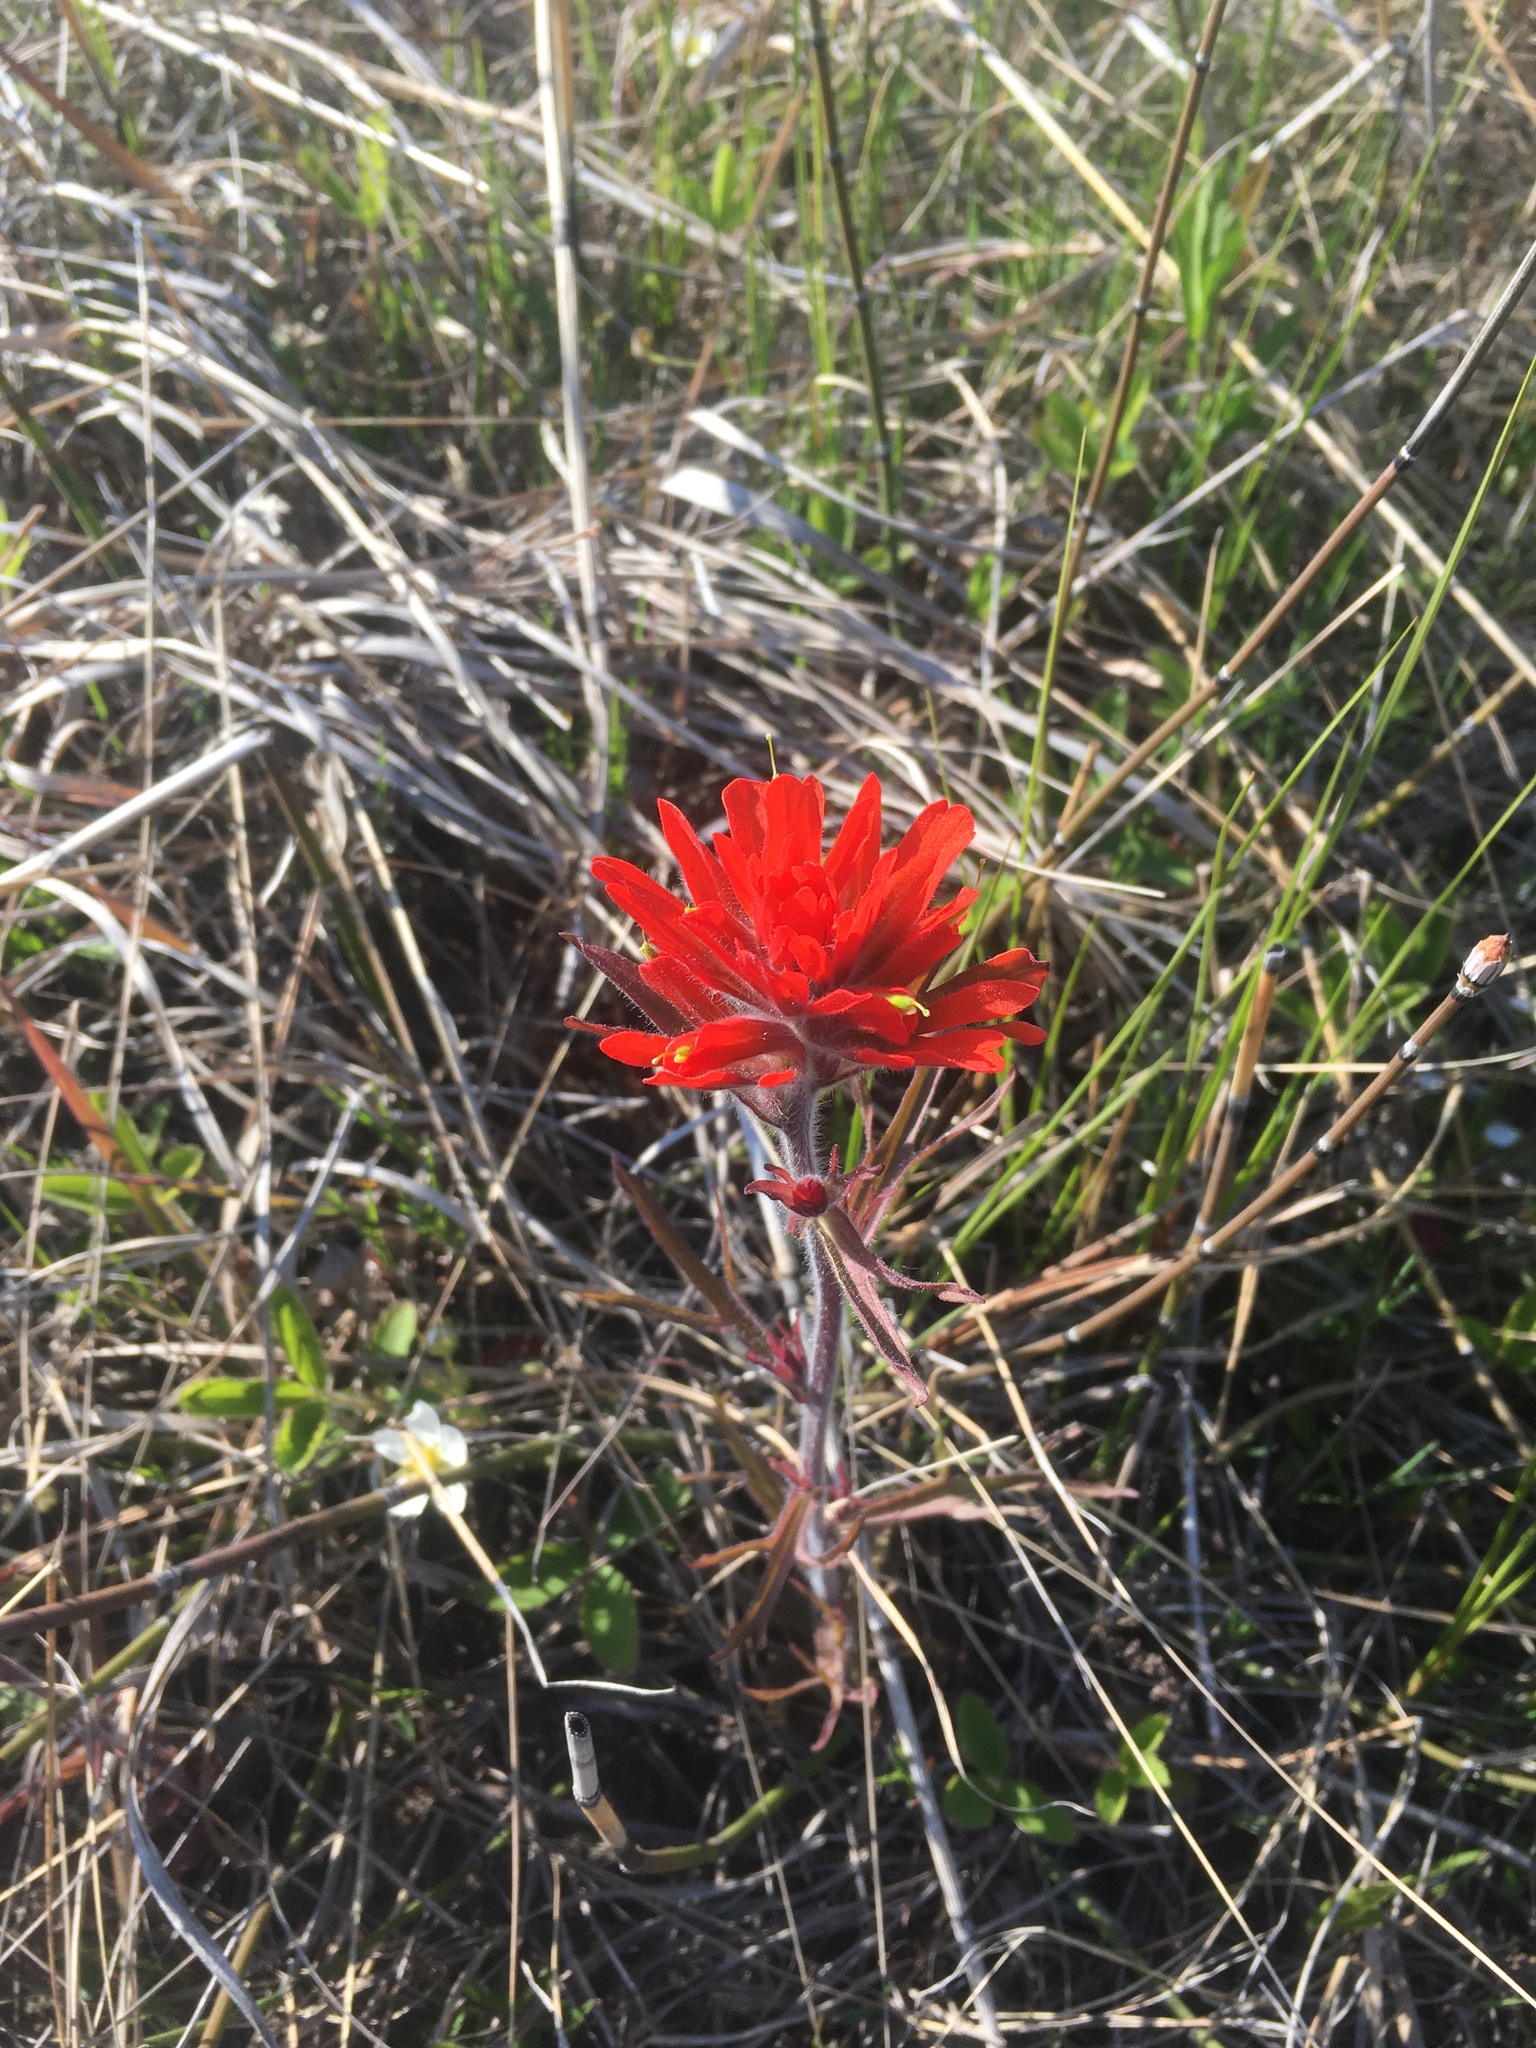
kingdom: Plantae
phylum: Tracheophyta
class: Magnoliopsida
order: Lamiales
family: Orobanchaceae
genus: Castilleja
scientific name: Castilleja coccinea
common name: Scarlet paintbrush
